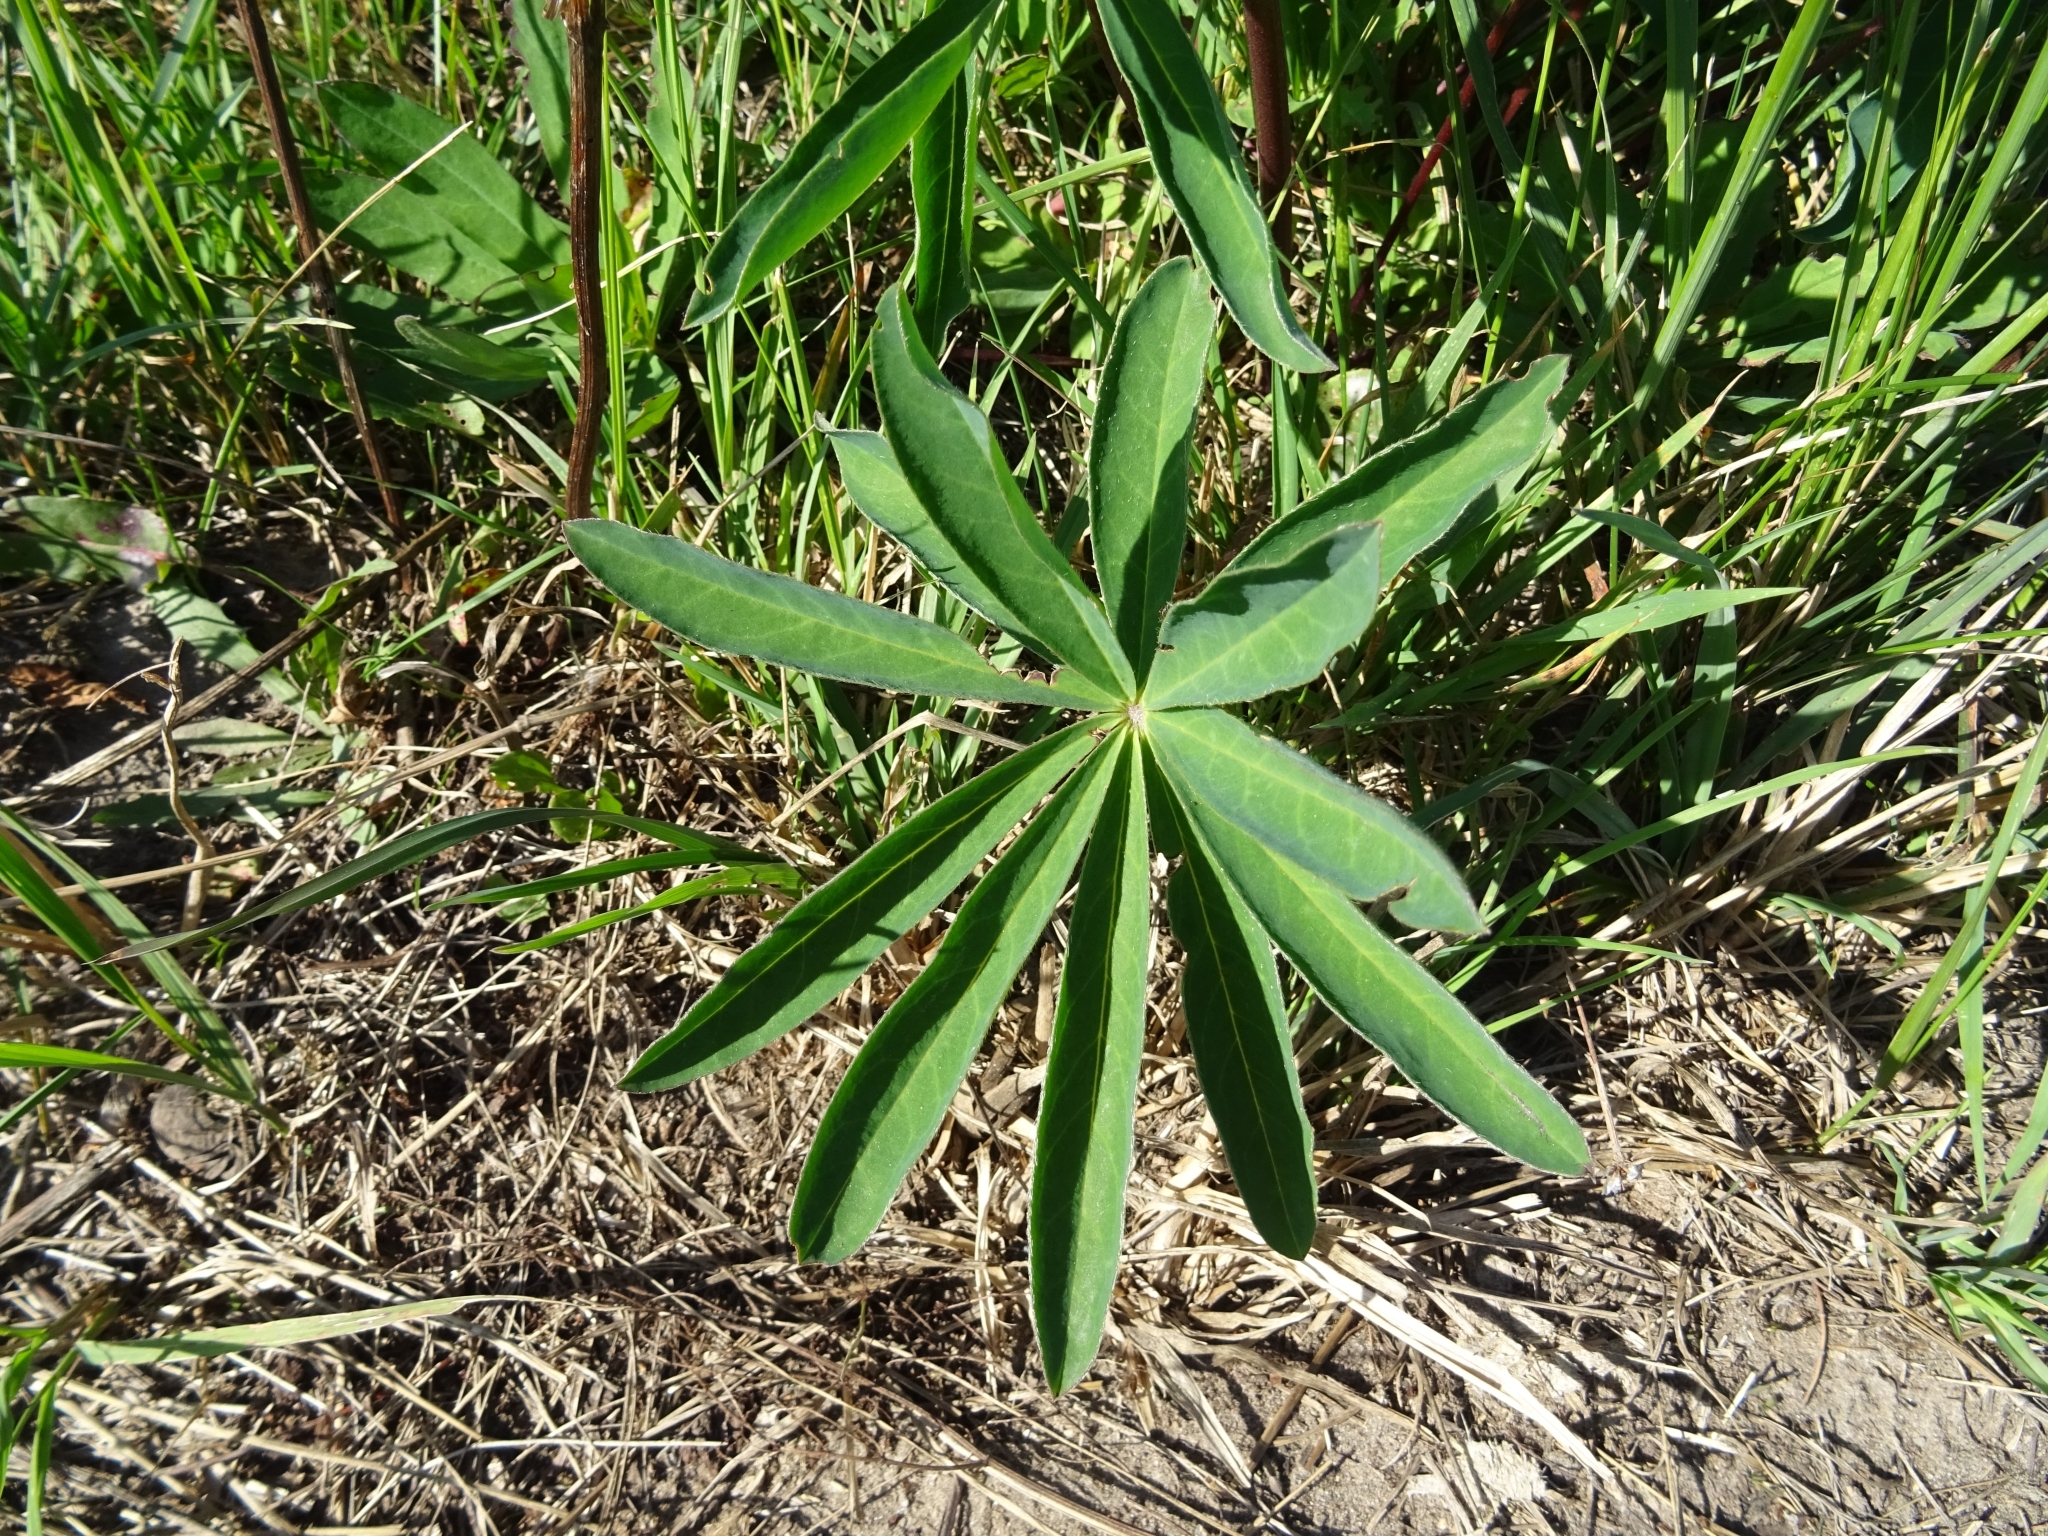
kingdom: Plantae
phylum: Tracheophyta
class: Magnoliopsida
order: Fabales
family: Fabaceae
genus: Lupinus
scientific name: Lupinus polyphyllus
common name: Garden lupin
